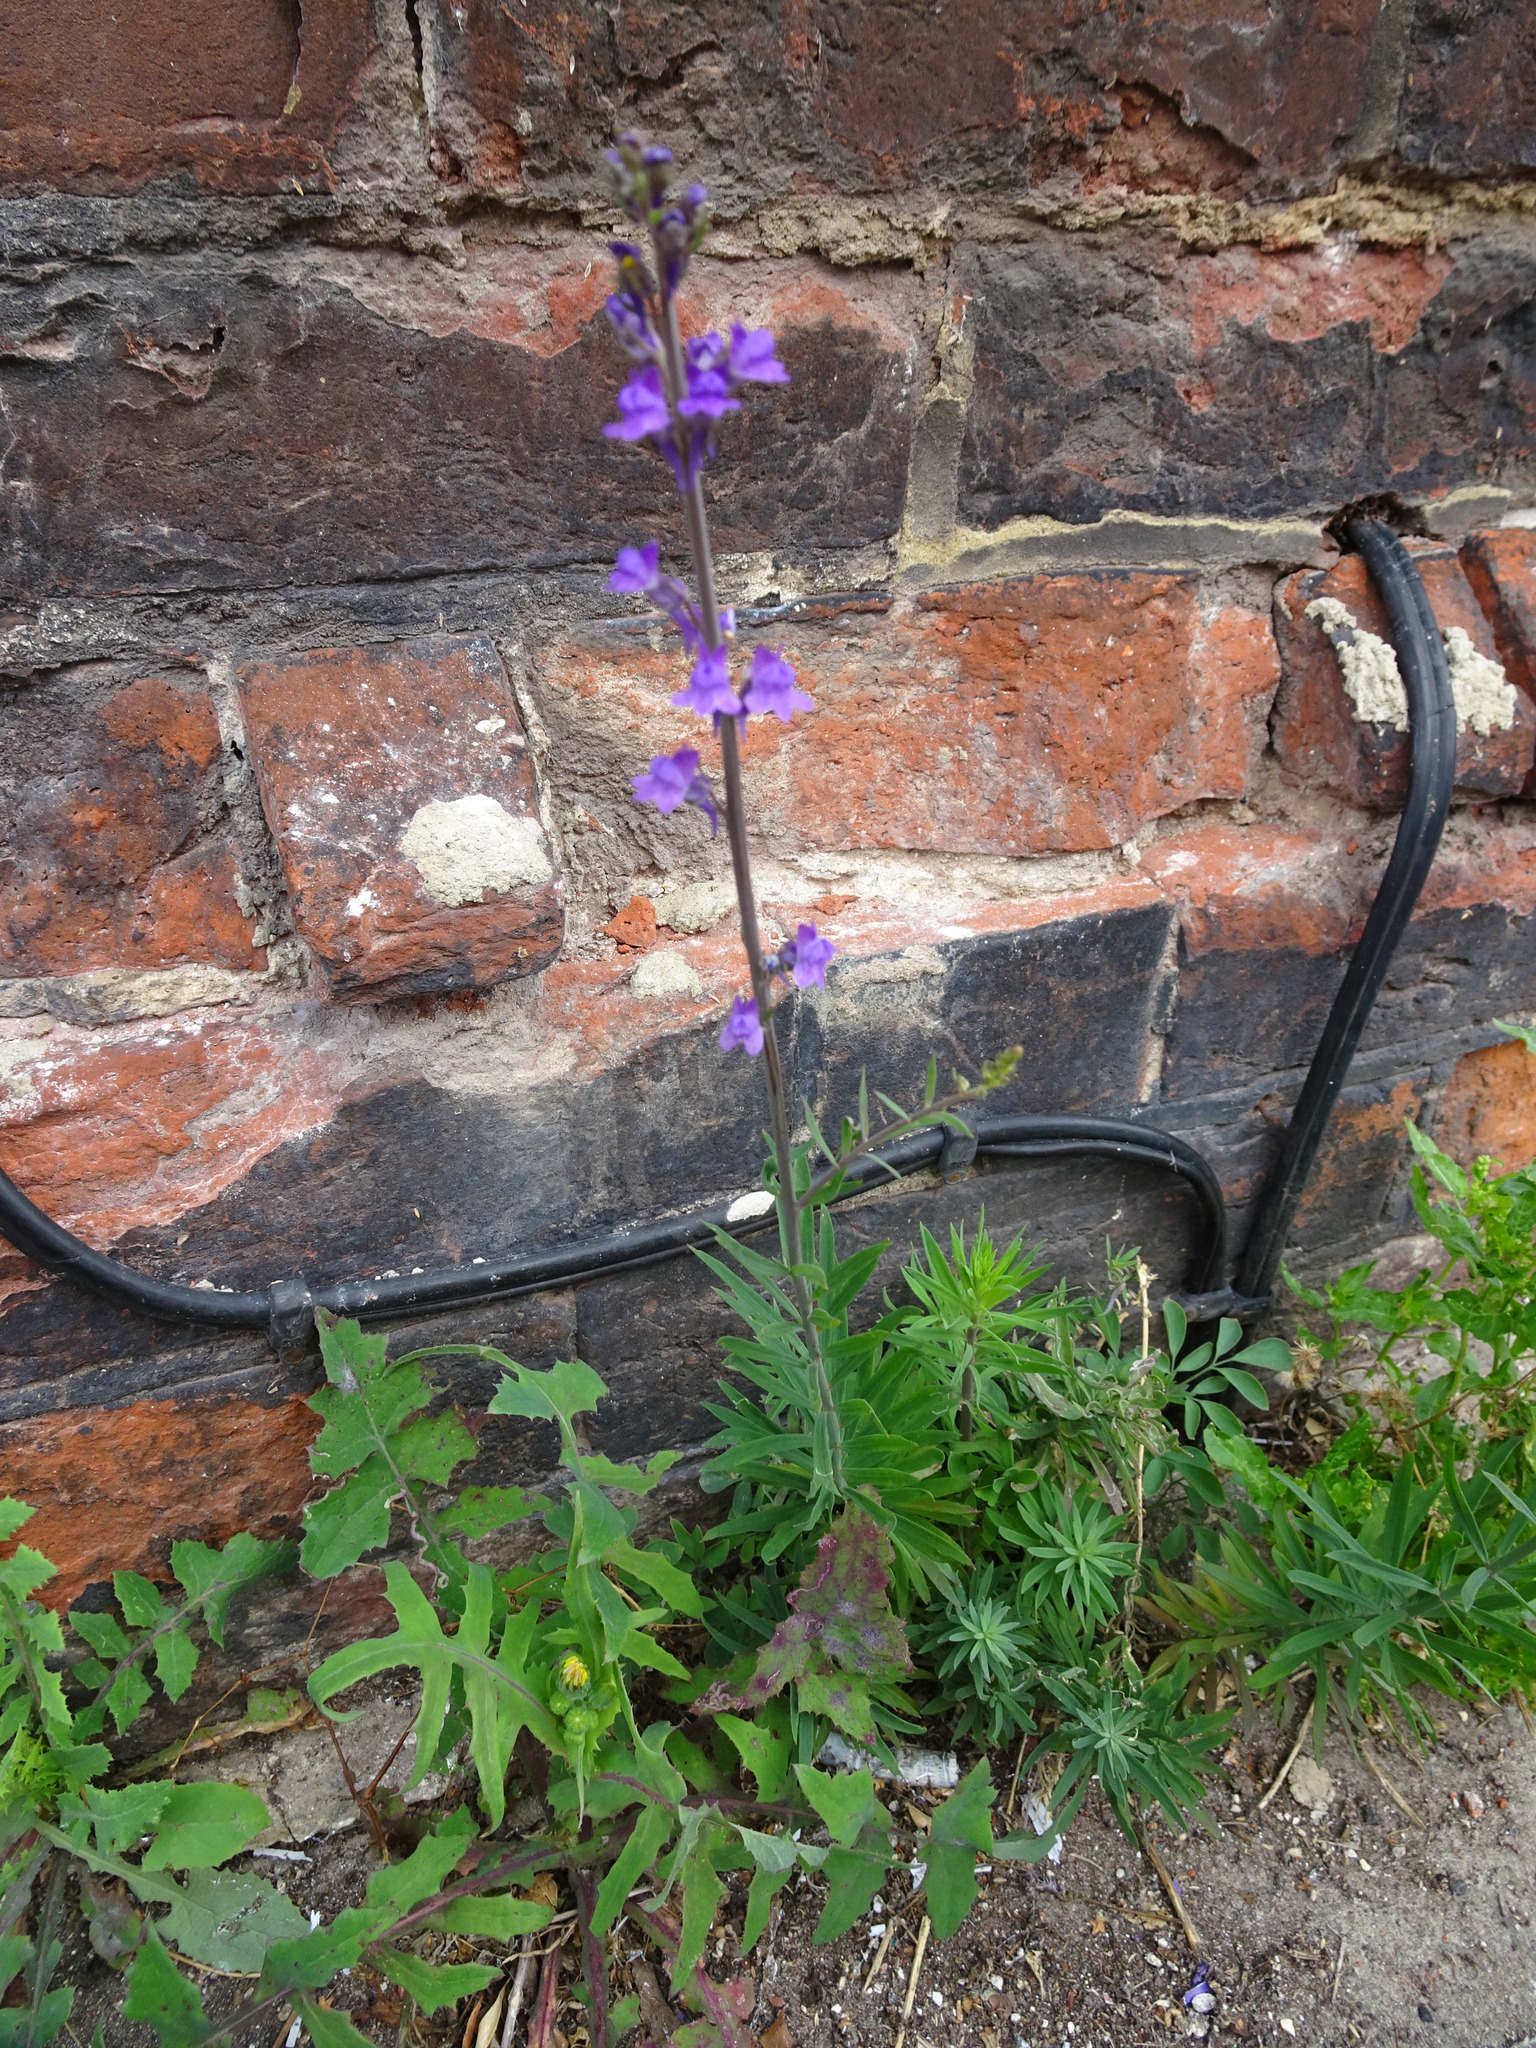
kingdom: Plantae
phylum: Tracheophyta
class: Magnoliopsida
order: Lamiales
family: Plantaginaceae
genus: Linaria
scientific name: Linaria purpurea
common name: Purple toadflax
